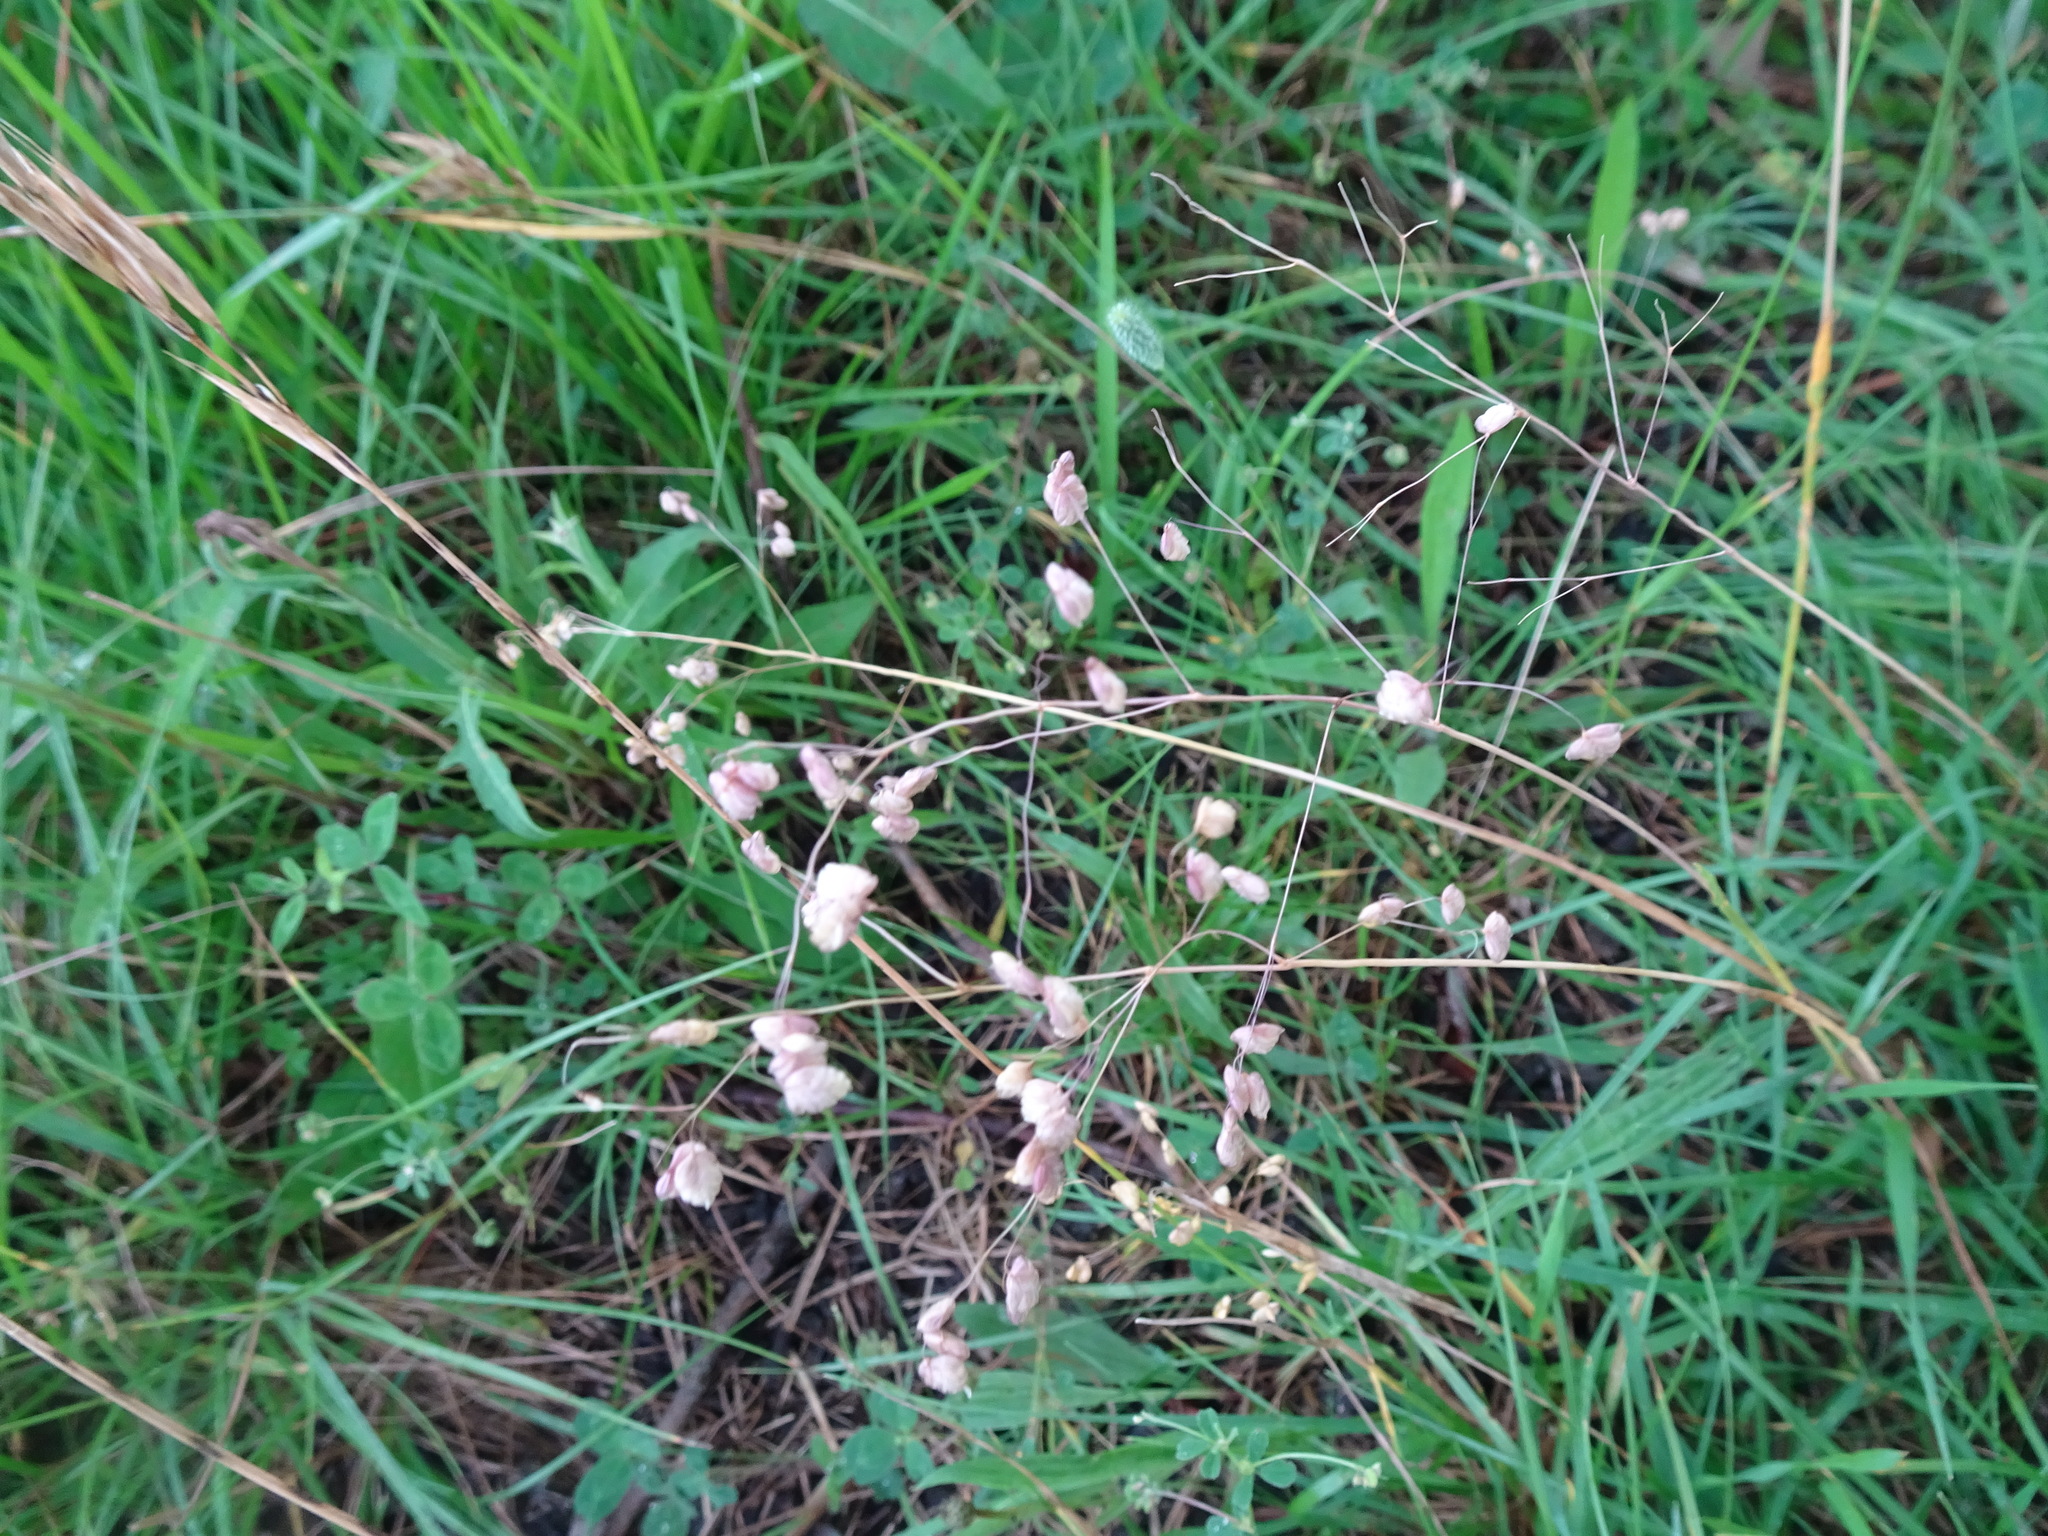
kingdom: Plantae
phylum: Tracheophyta
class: Liliopsida
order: Poales
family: Poaceae
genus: Briza
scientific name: Briza media
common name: Quaking grass
